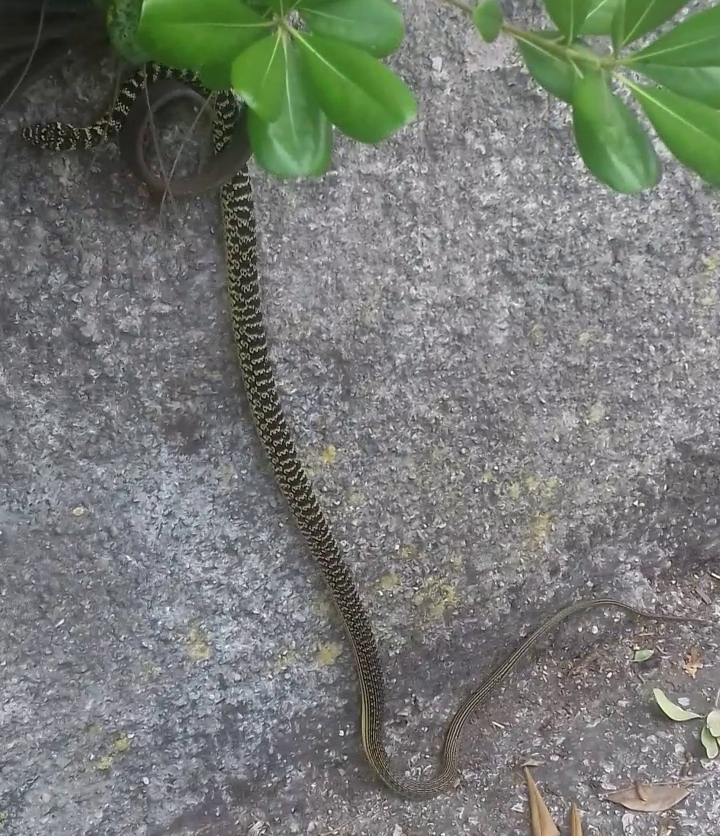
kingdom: Animalia
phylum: Chordata
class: Squamata
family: Colubridae
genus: Hierophis
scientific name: Hierophis viridiflavus
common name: Green whip snake
